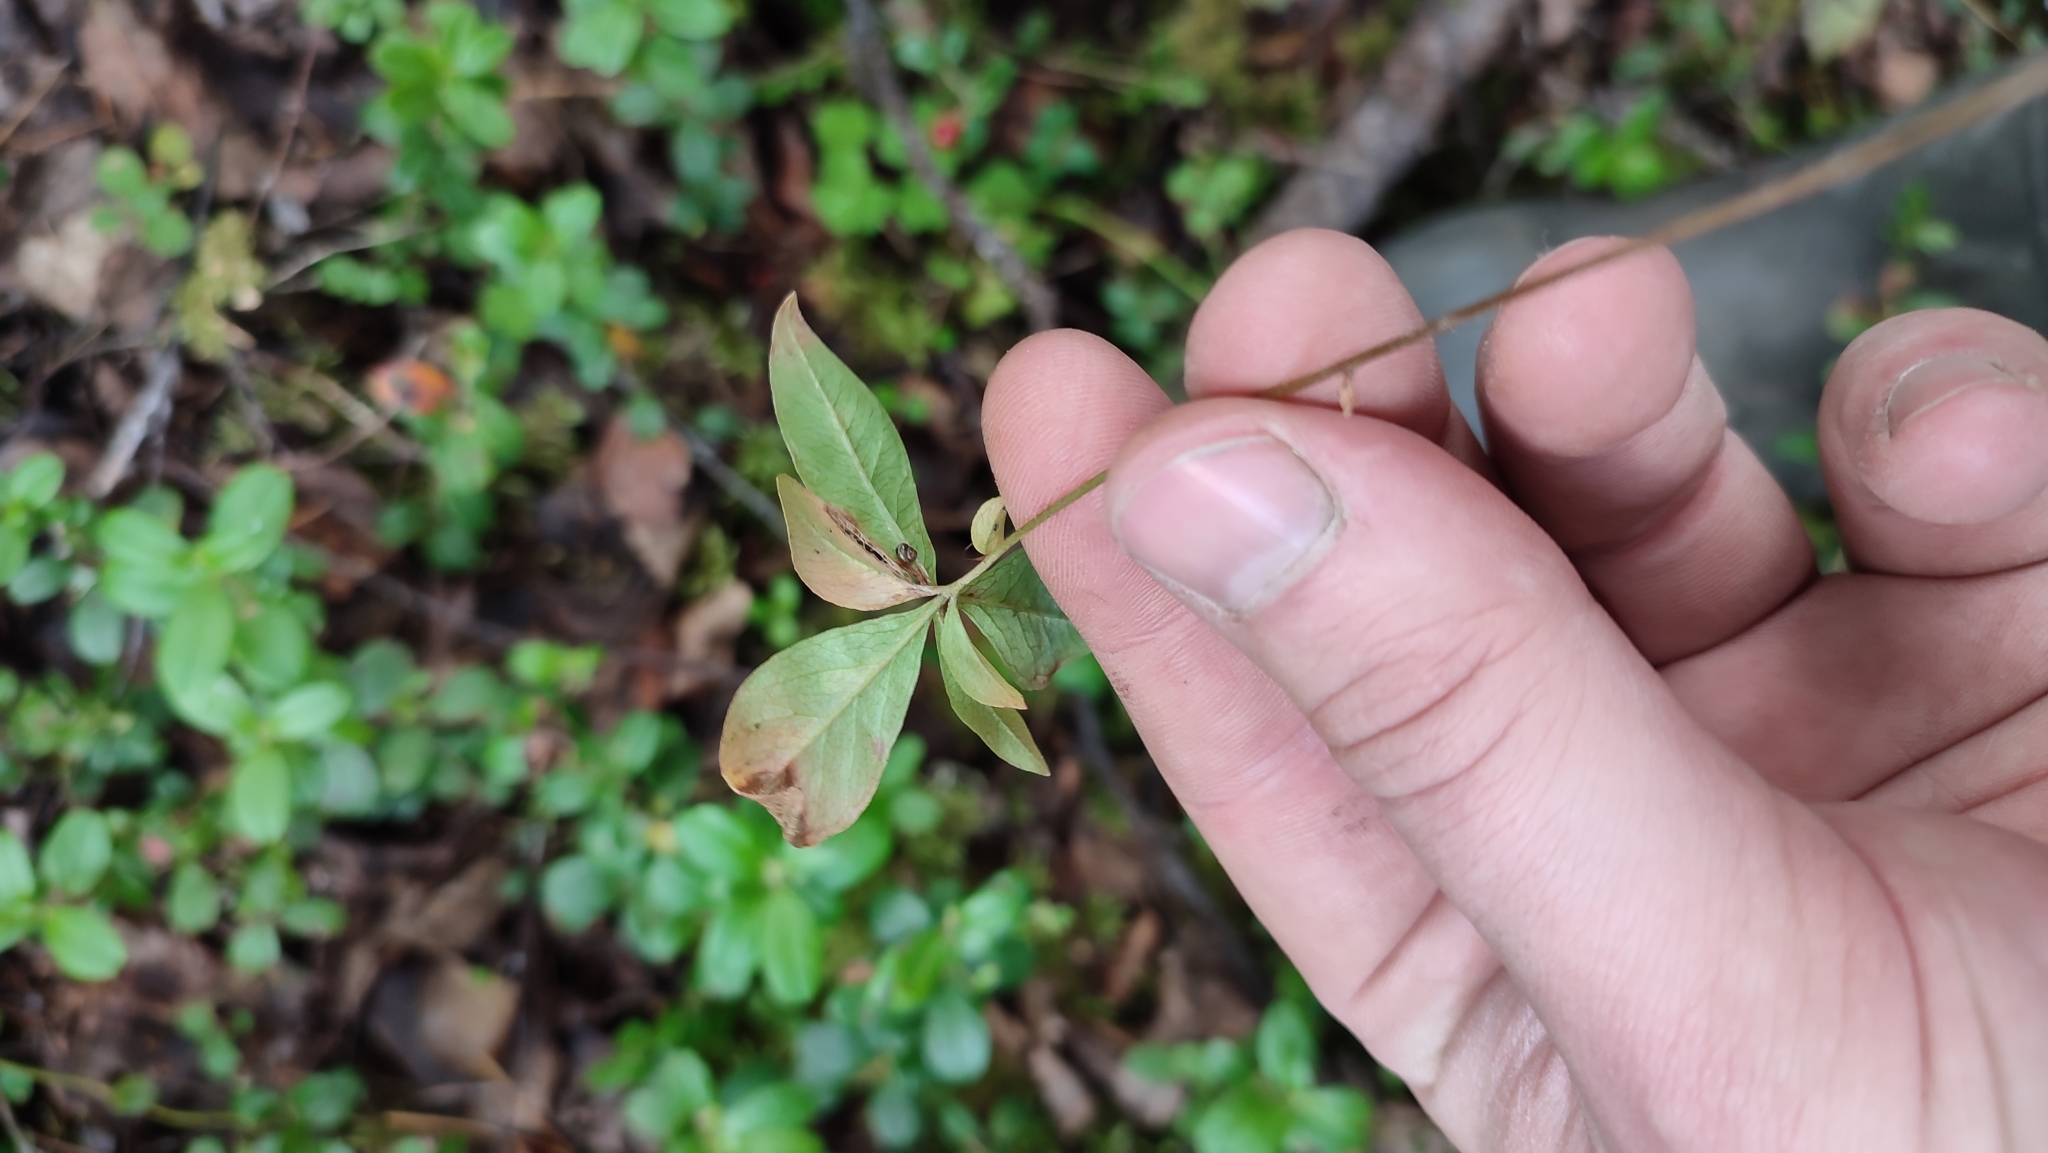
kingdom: Plantae
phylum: Tracheophyta
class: Magnoliopsida
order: Ericales
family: Primulaceae
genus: Lysimachia
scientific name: Lysimachia europaea
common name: Arctic starflower
